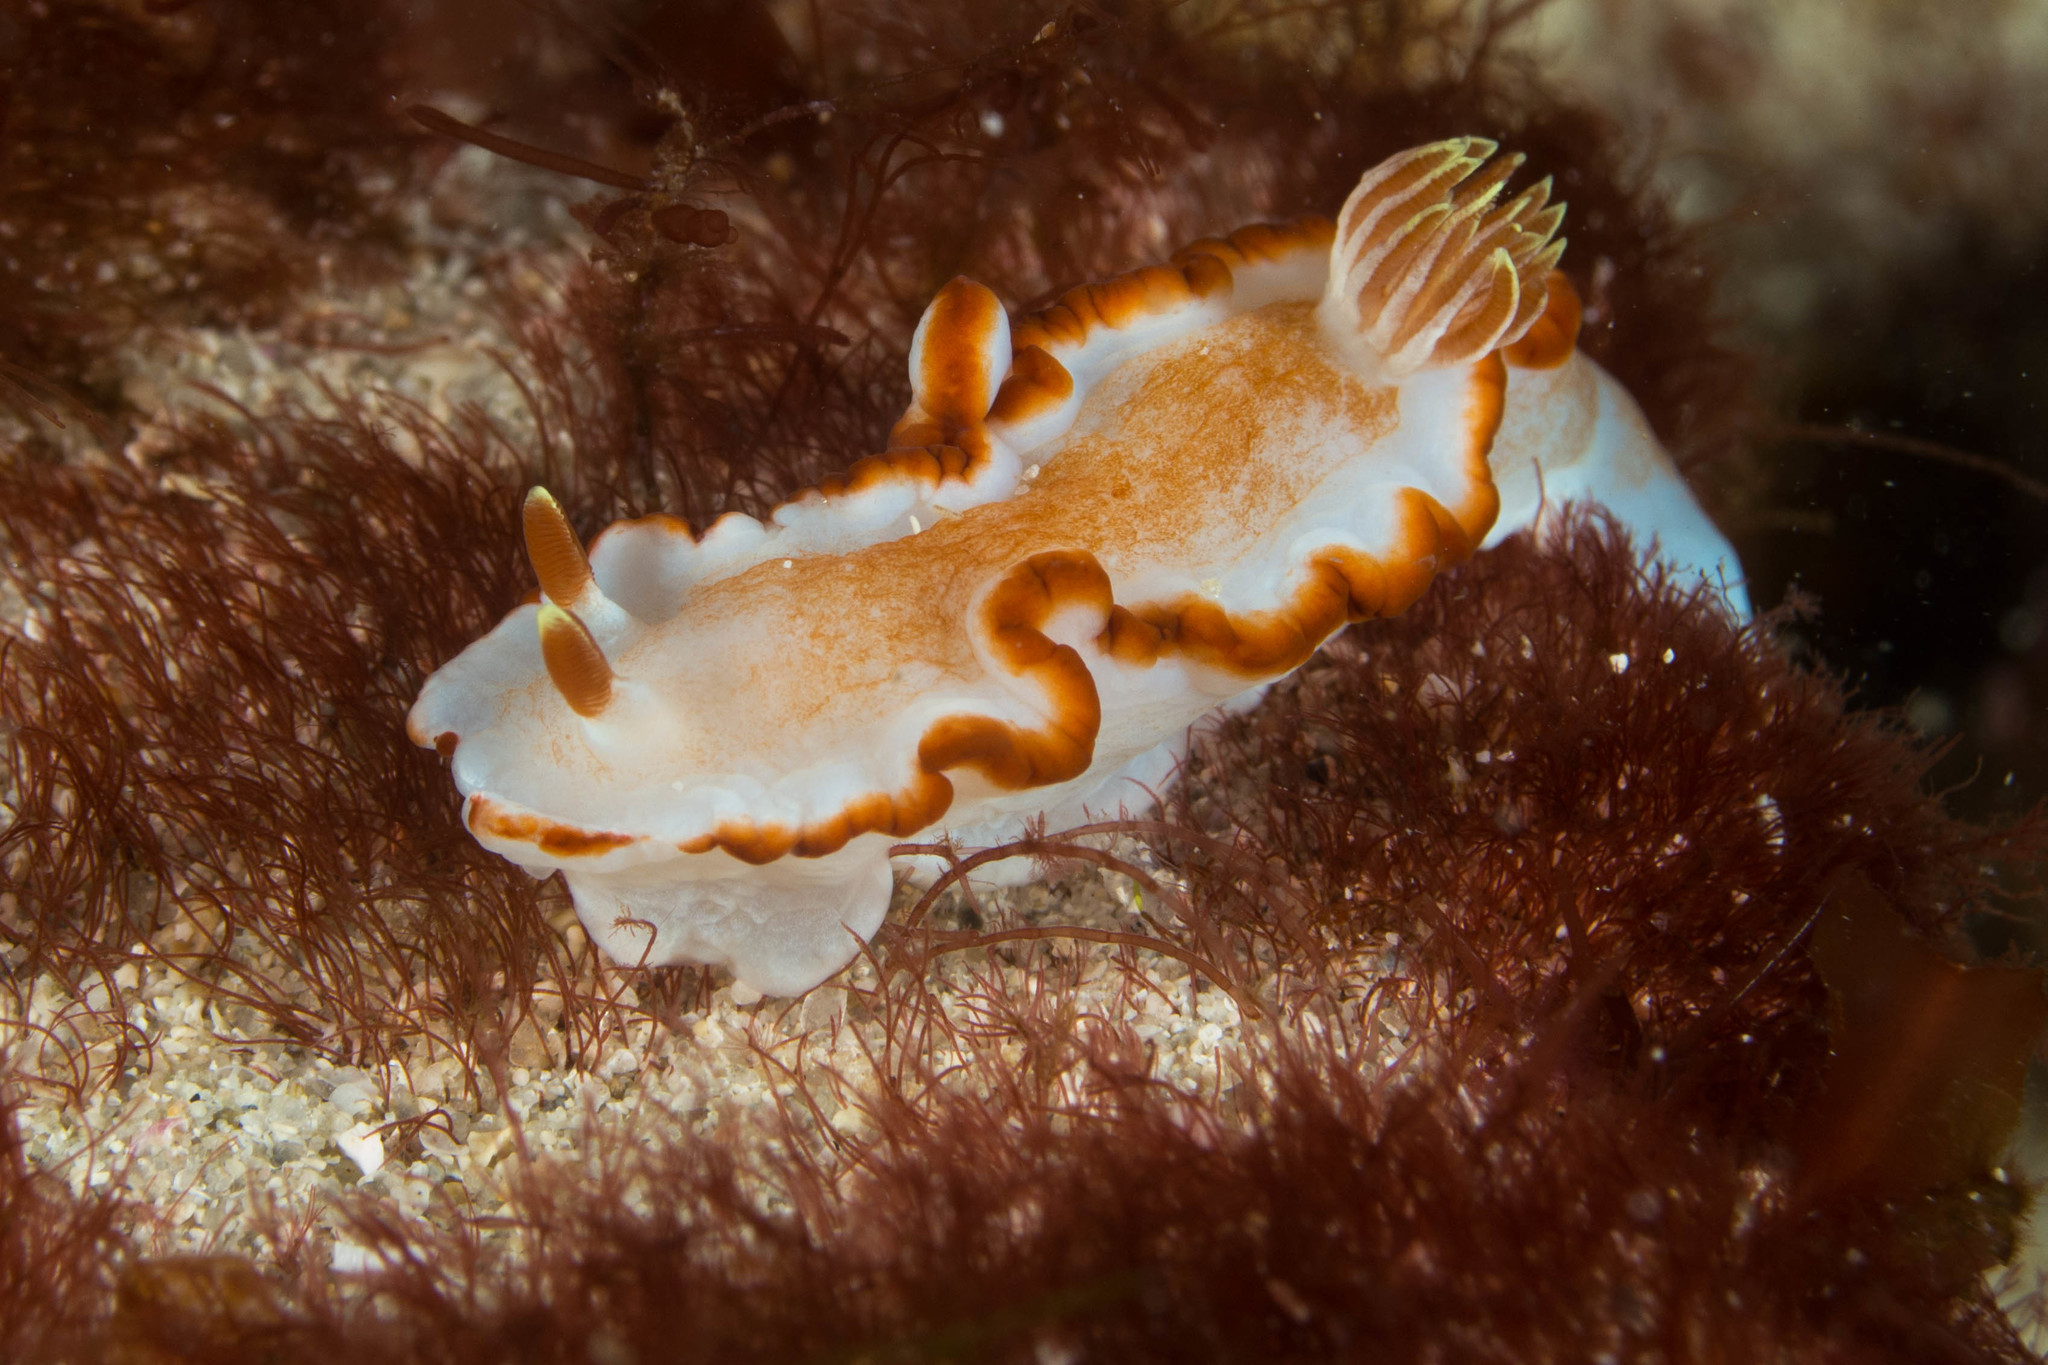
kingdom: Animalia
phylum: Mollusca
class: Gastropoda
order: Nudibranchia
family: Chromodorididae
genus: Glossodoris
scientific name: Glossodoris rufomarginata
